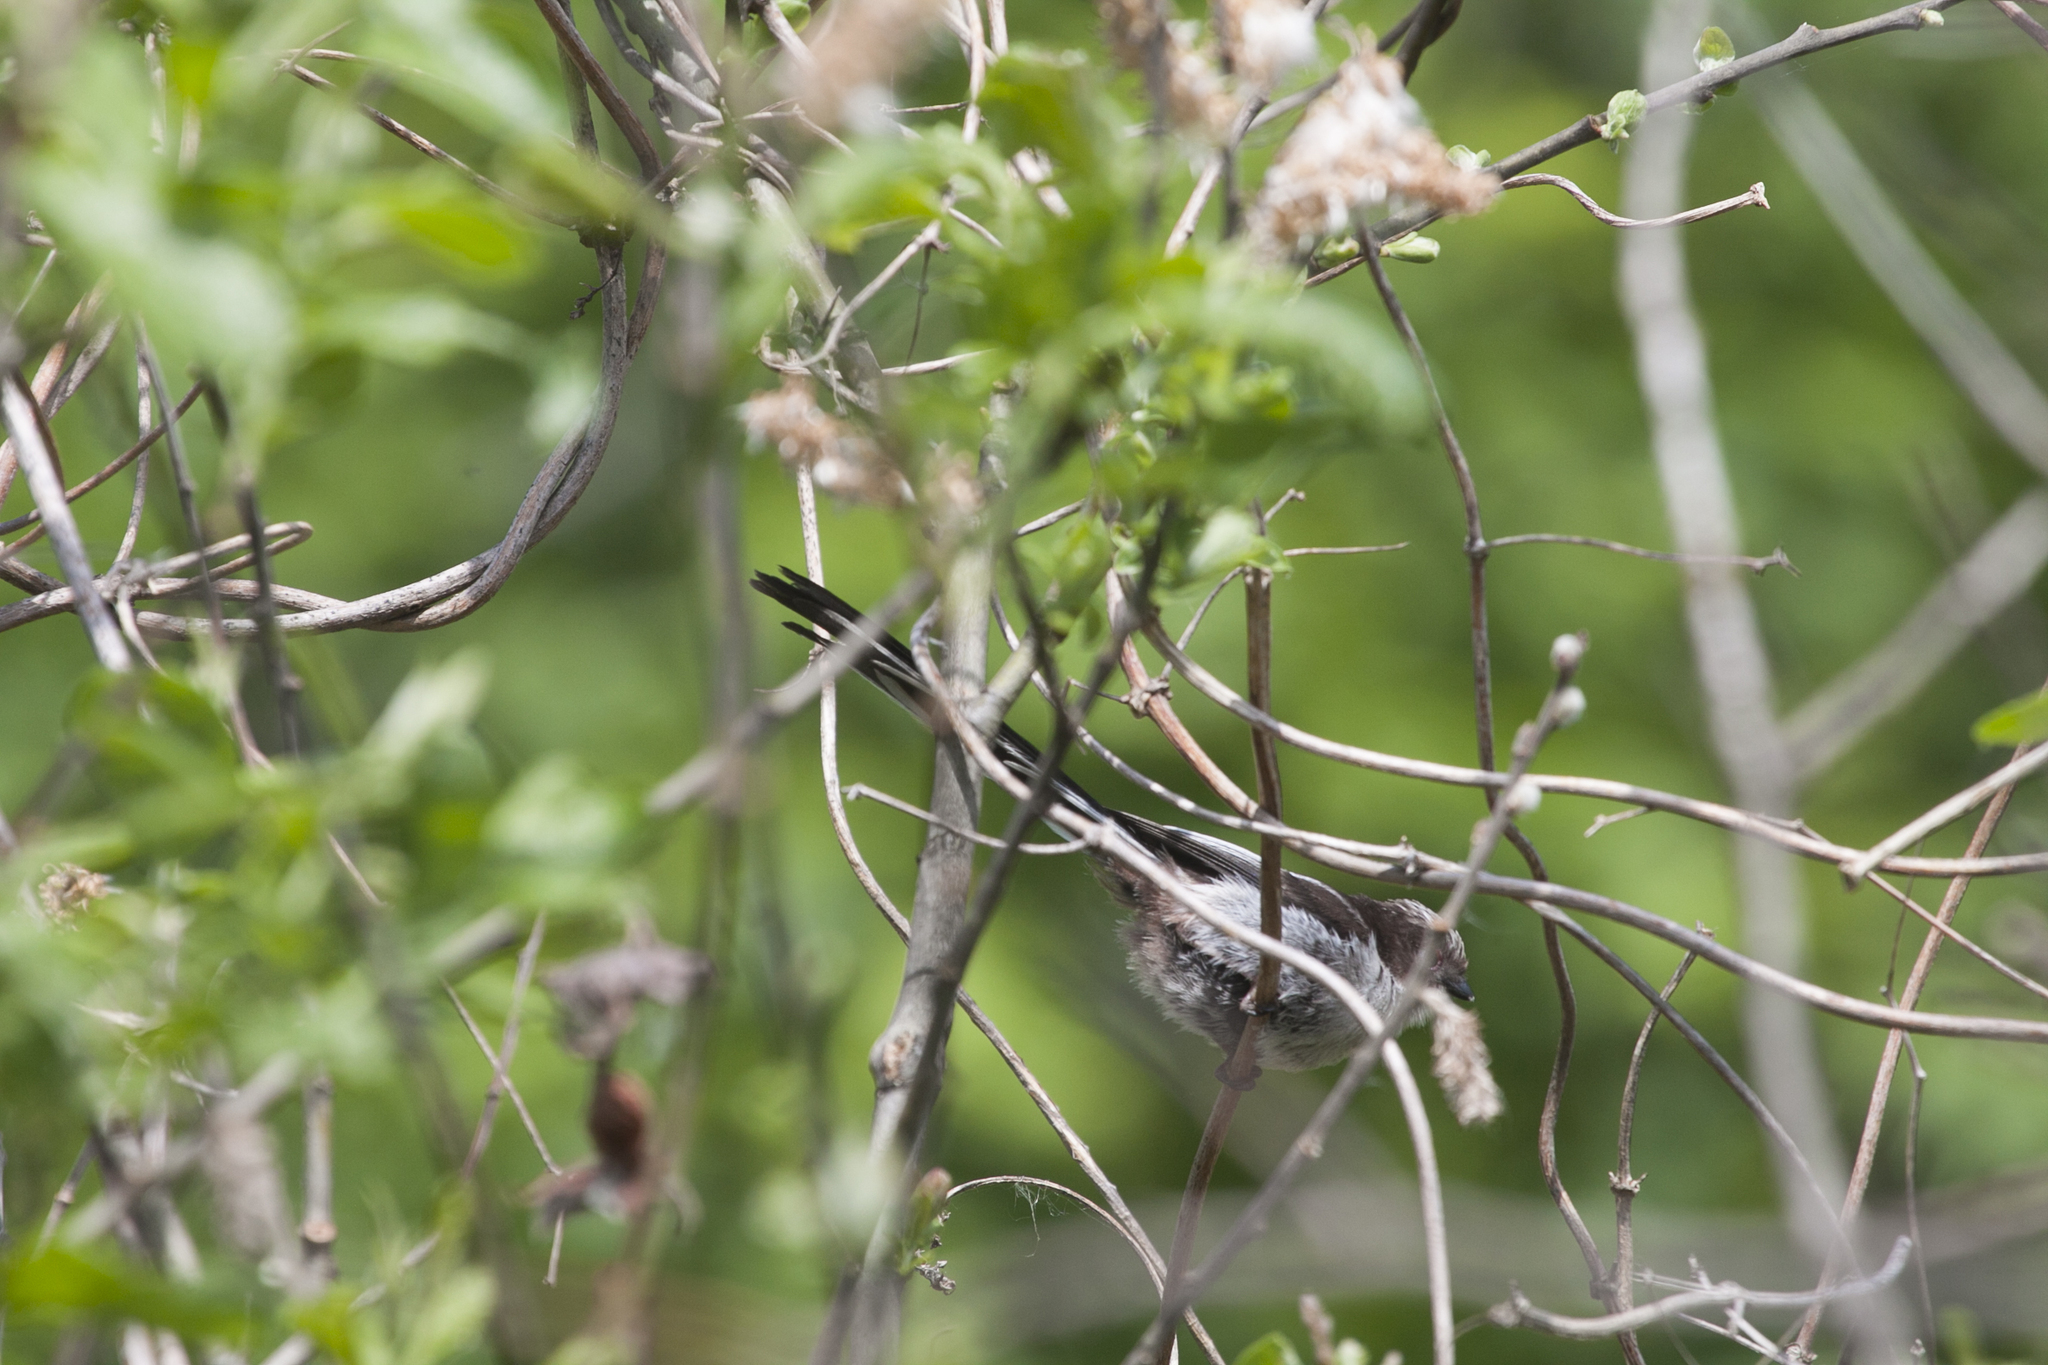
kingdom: Animalia
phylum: Chordata
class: Aves
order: Passeriformes
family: Aegithalidae
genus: Aegithalos
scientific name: Aegithalos caudatus
